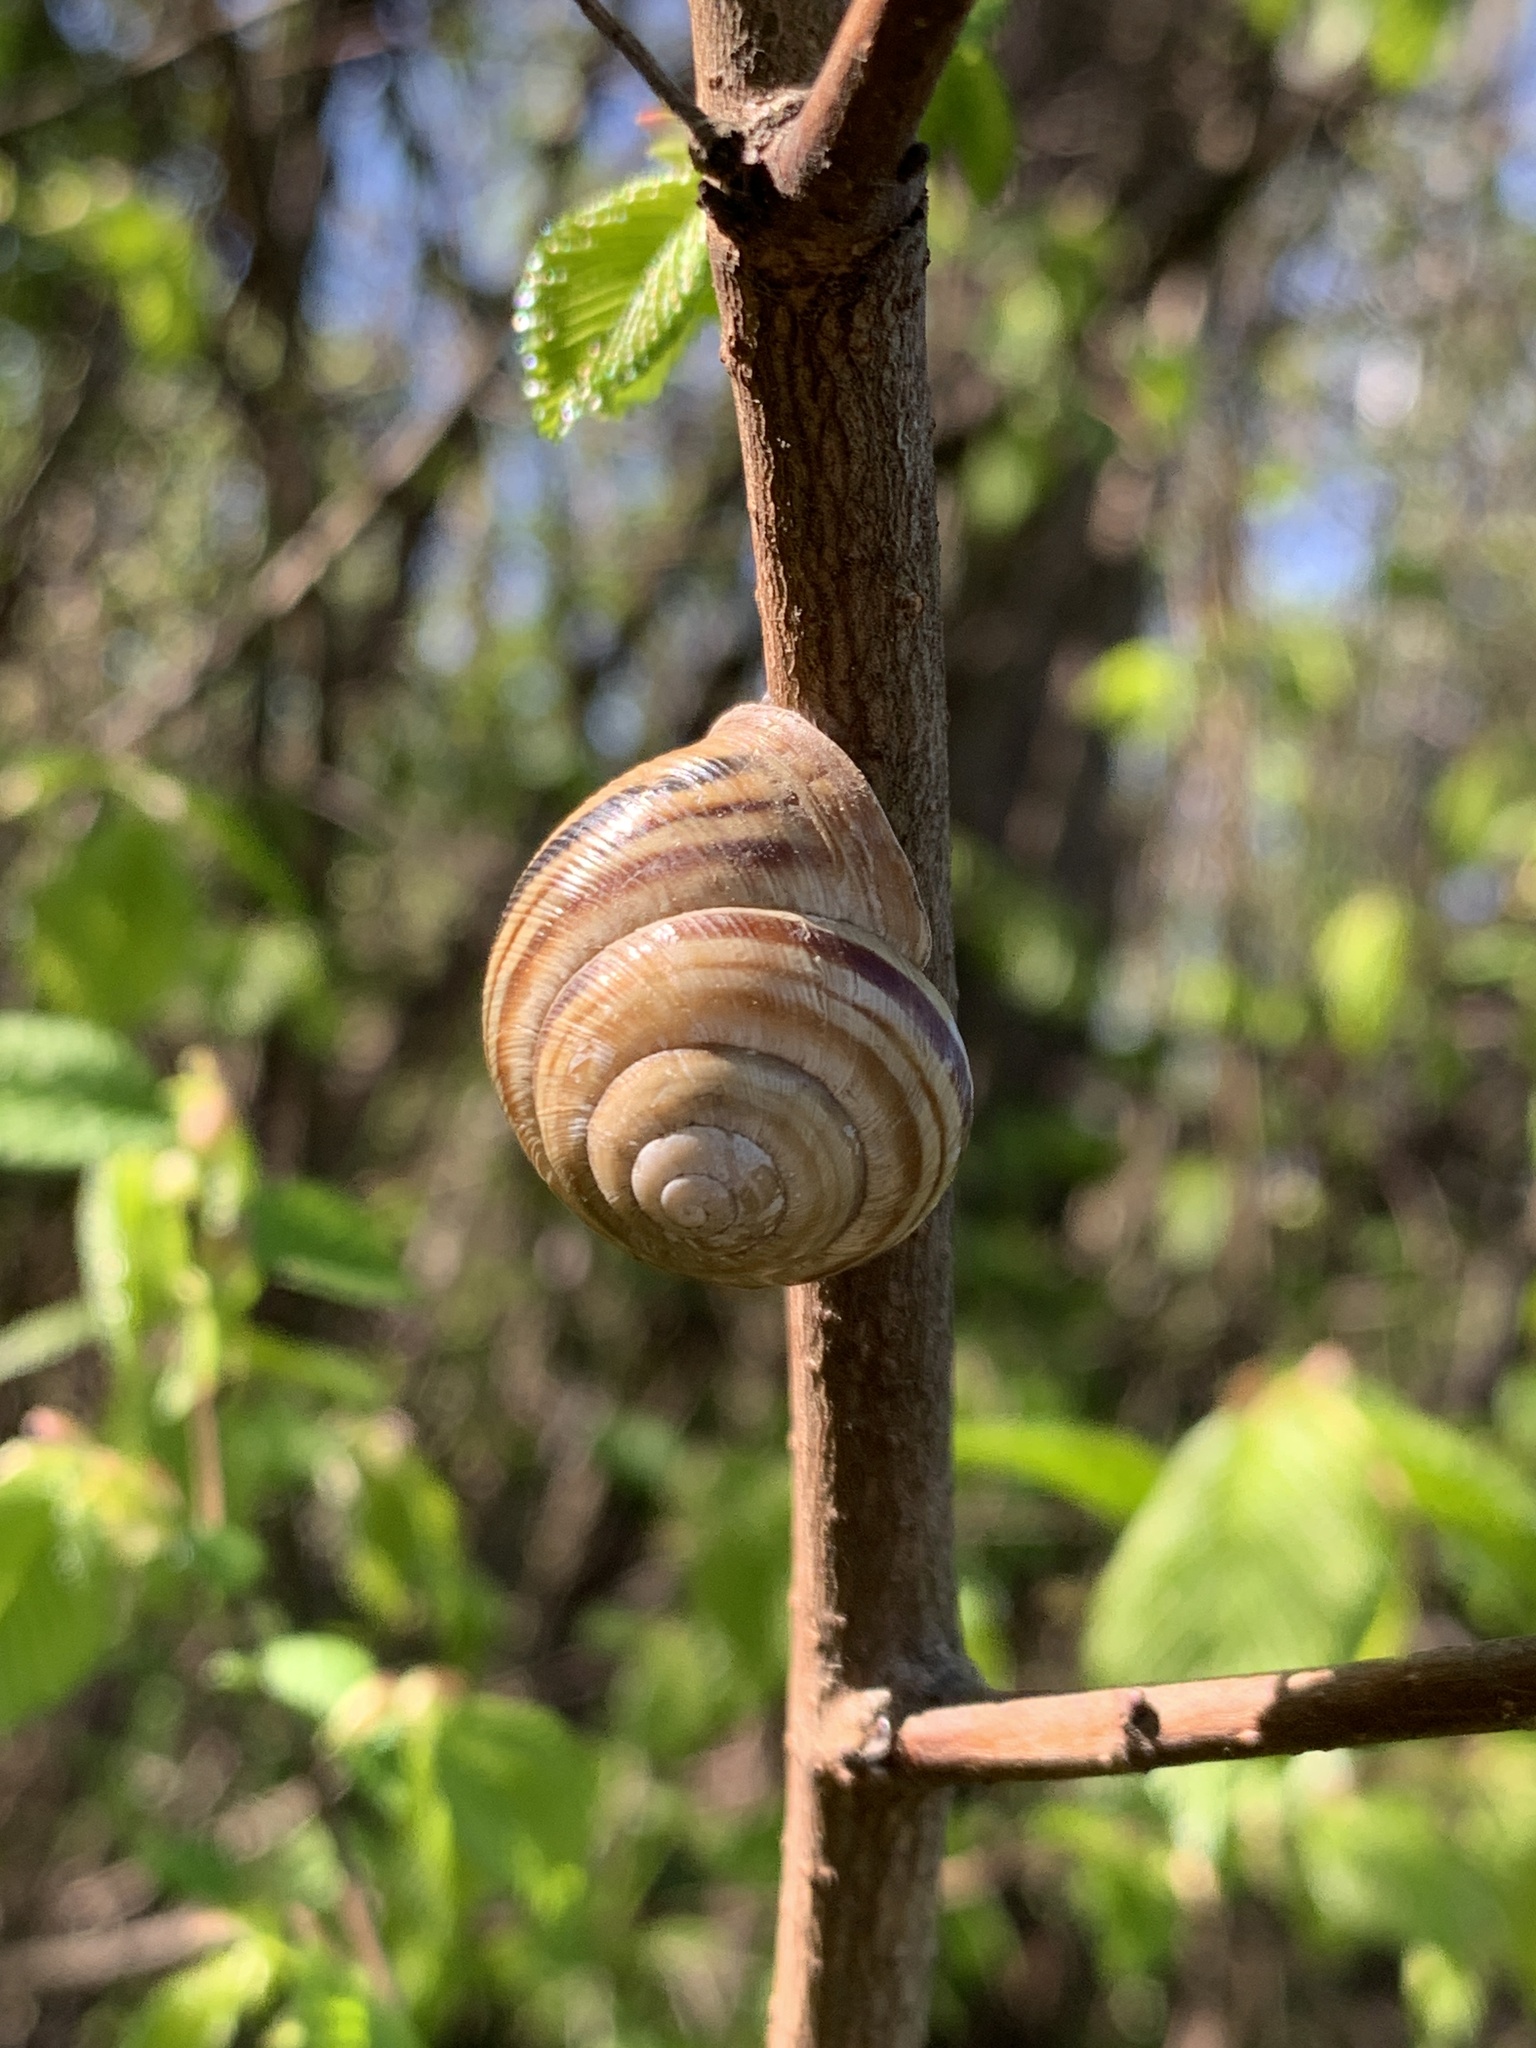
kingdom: Animalia
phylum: Mollusca
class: Gastropoda
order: Stylommatophora
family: Helicidae
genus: Caucasotachea
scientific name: Caucasotachea vindobonensis
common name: European helicid land snail
